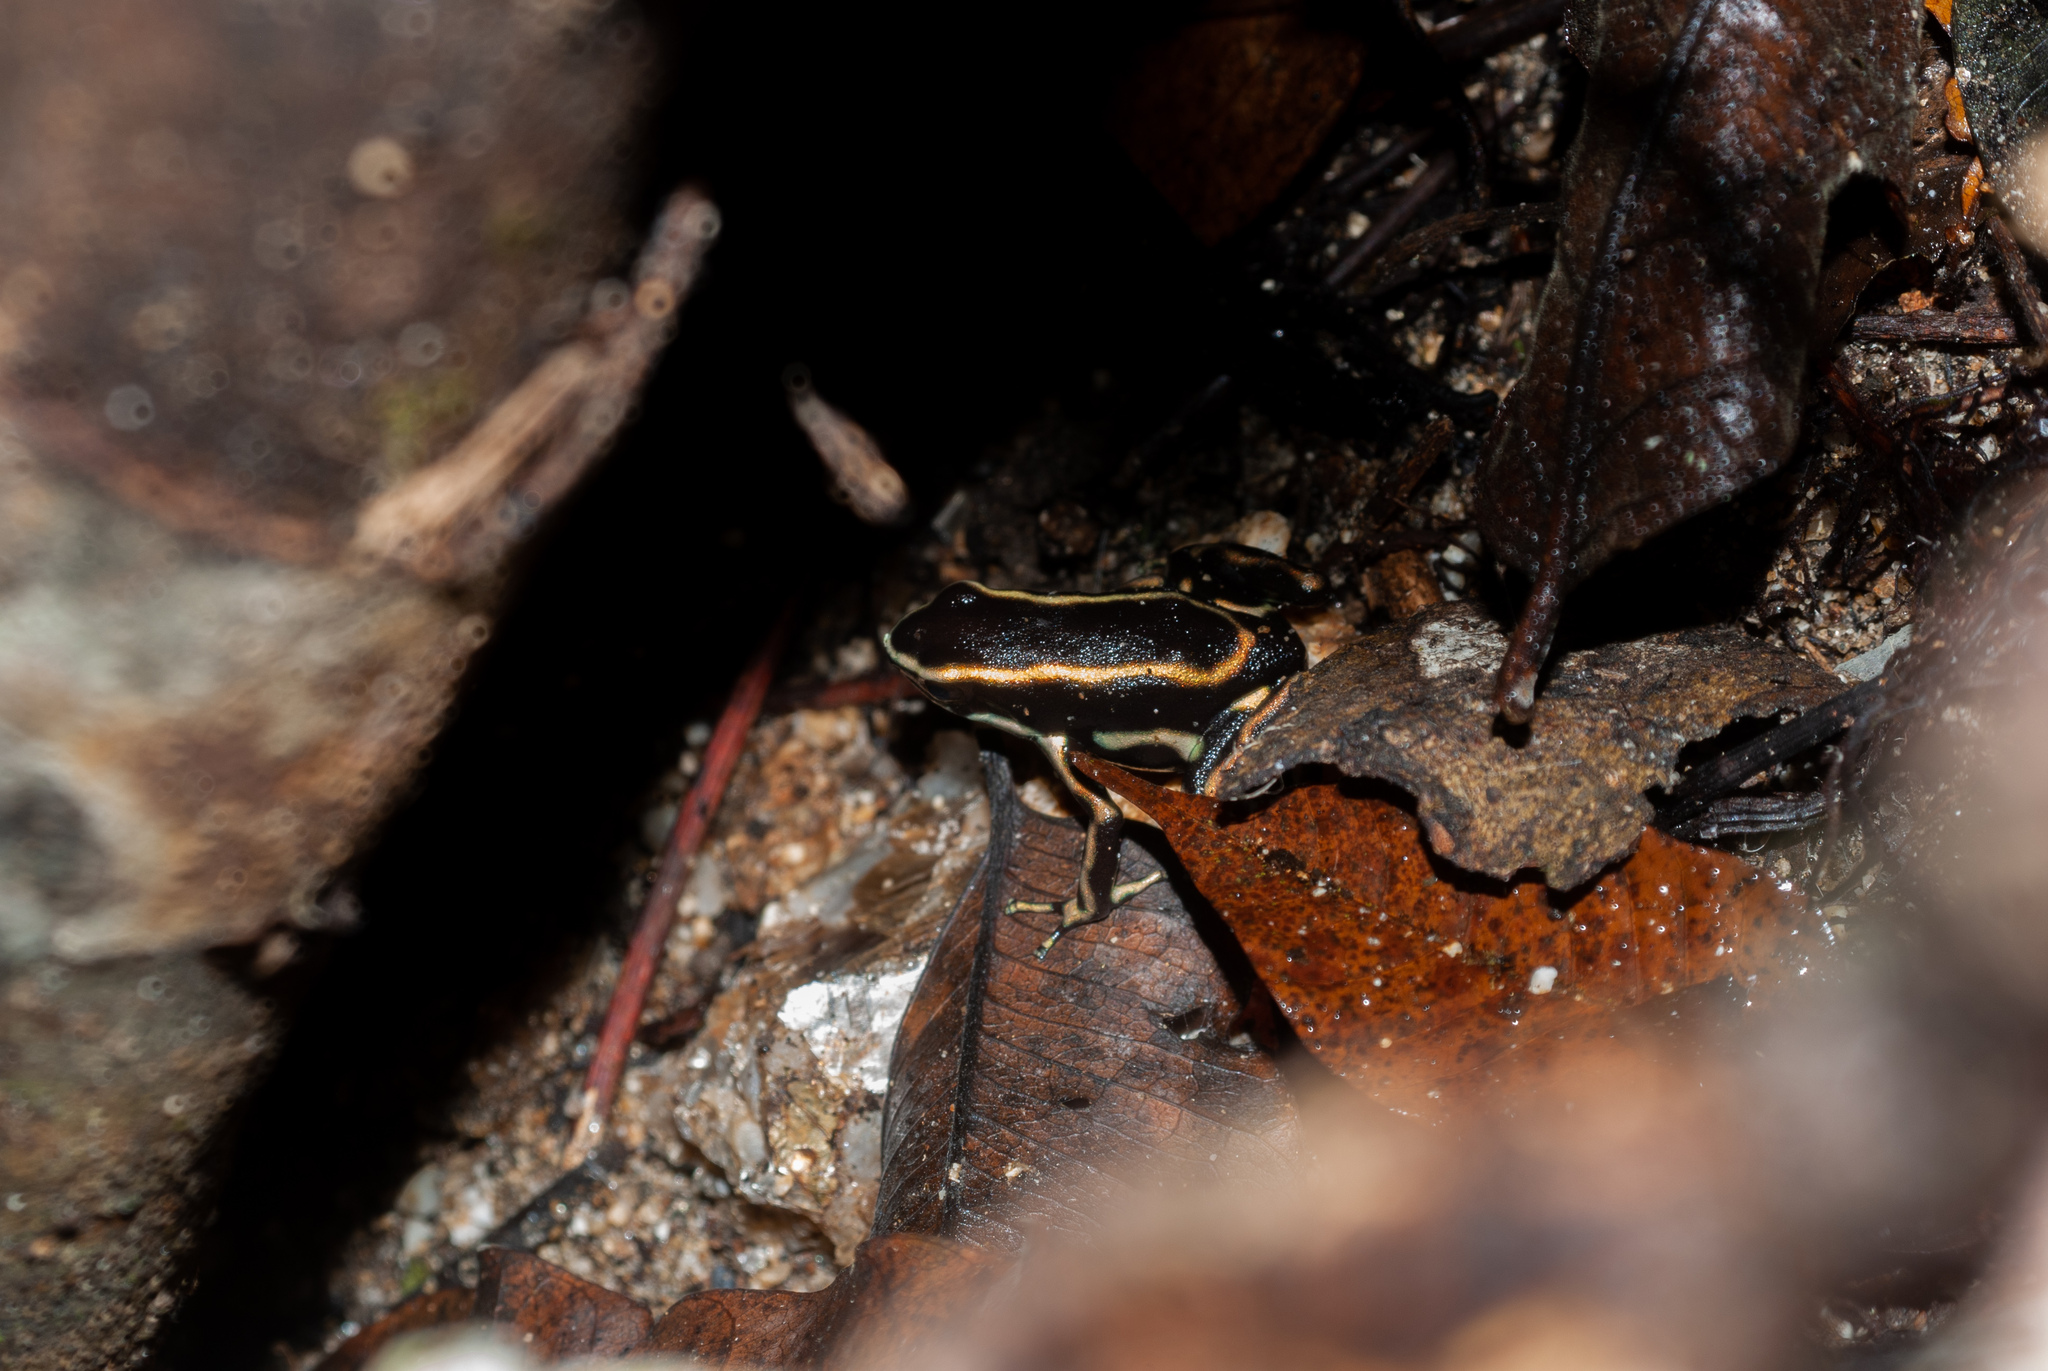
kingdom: Animalia
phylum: Chordata
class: Amphibia
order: Anura
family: Dendrobatidae
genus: Dendrobates
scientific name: Dendrobates truncatus
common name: Yellow-striped poison frog
